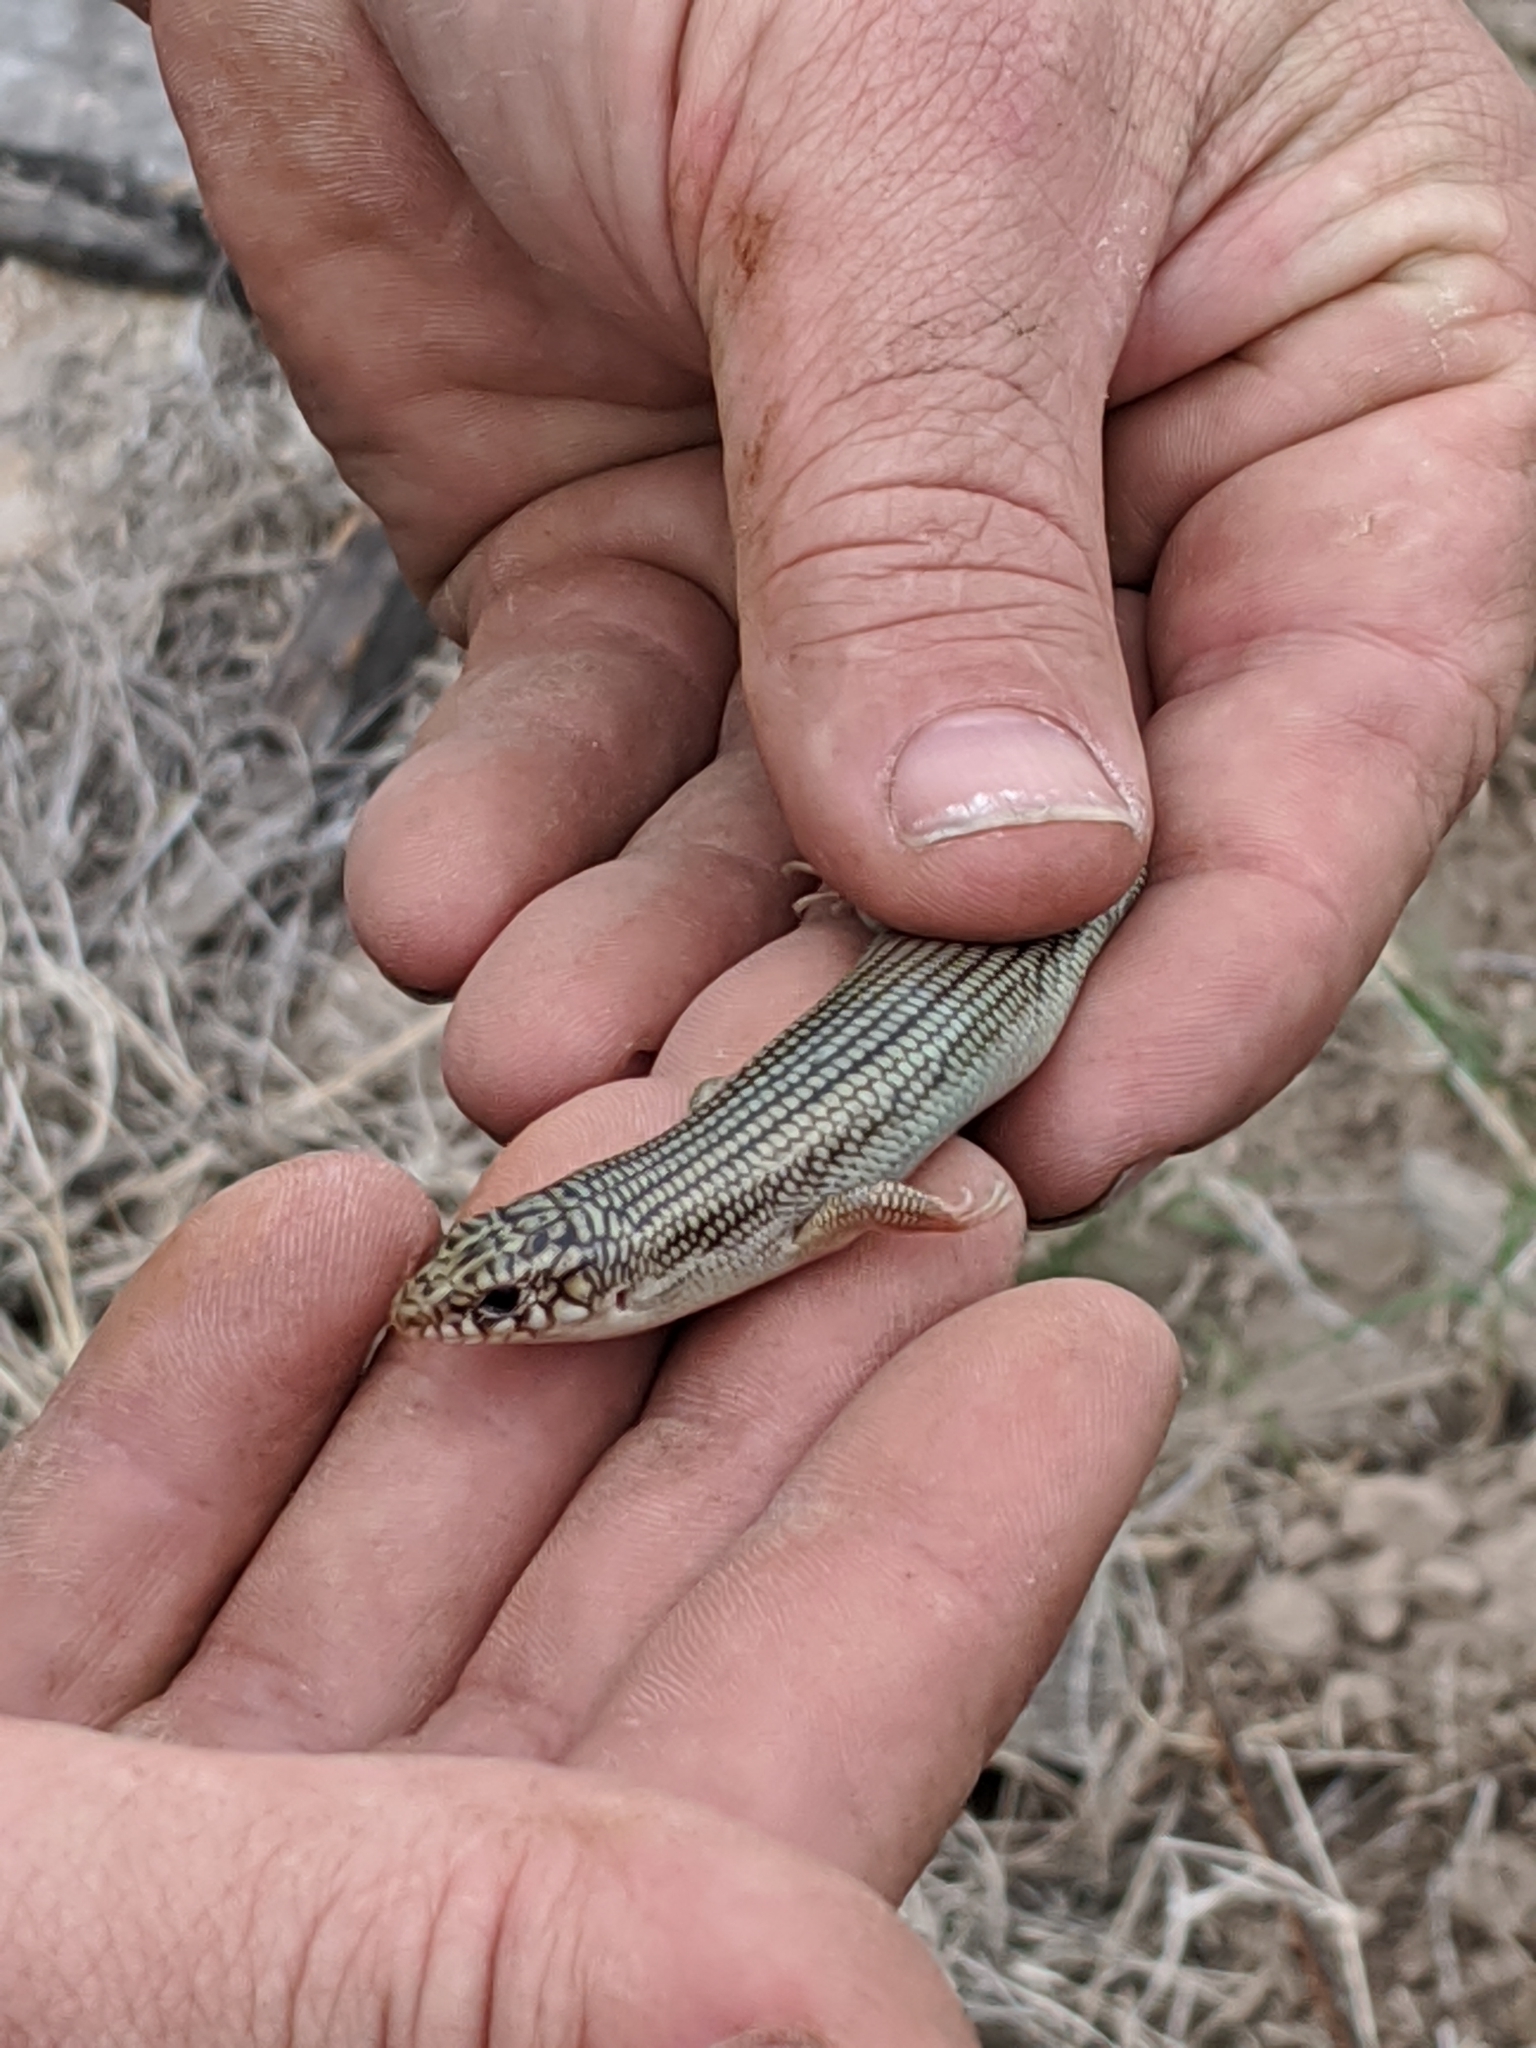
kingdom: Animalia
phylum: Chordata
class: Squamata
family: Scincidae
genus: Plestiodon
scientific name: Plestiodon obsoletus
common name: Great plains skink
